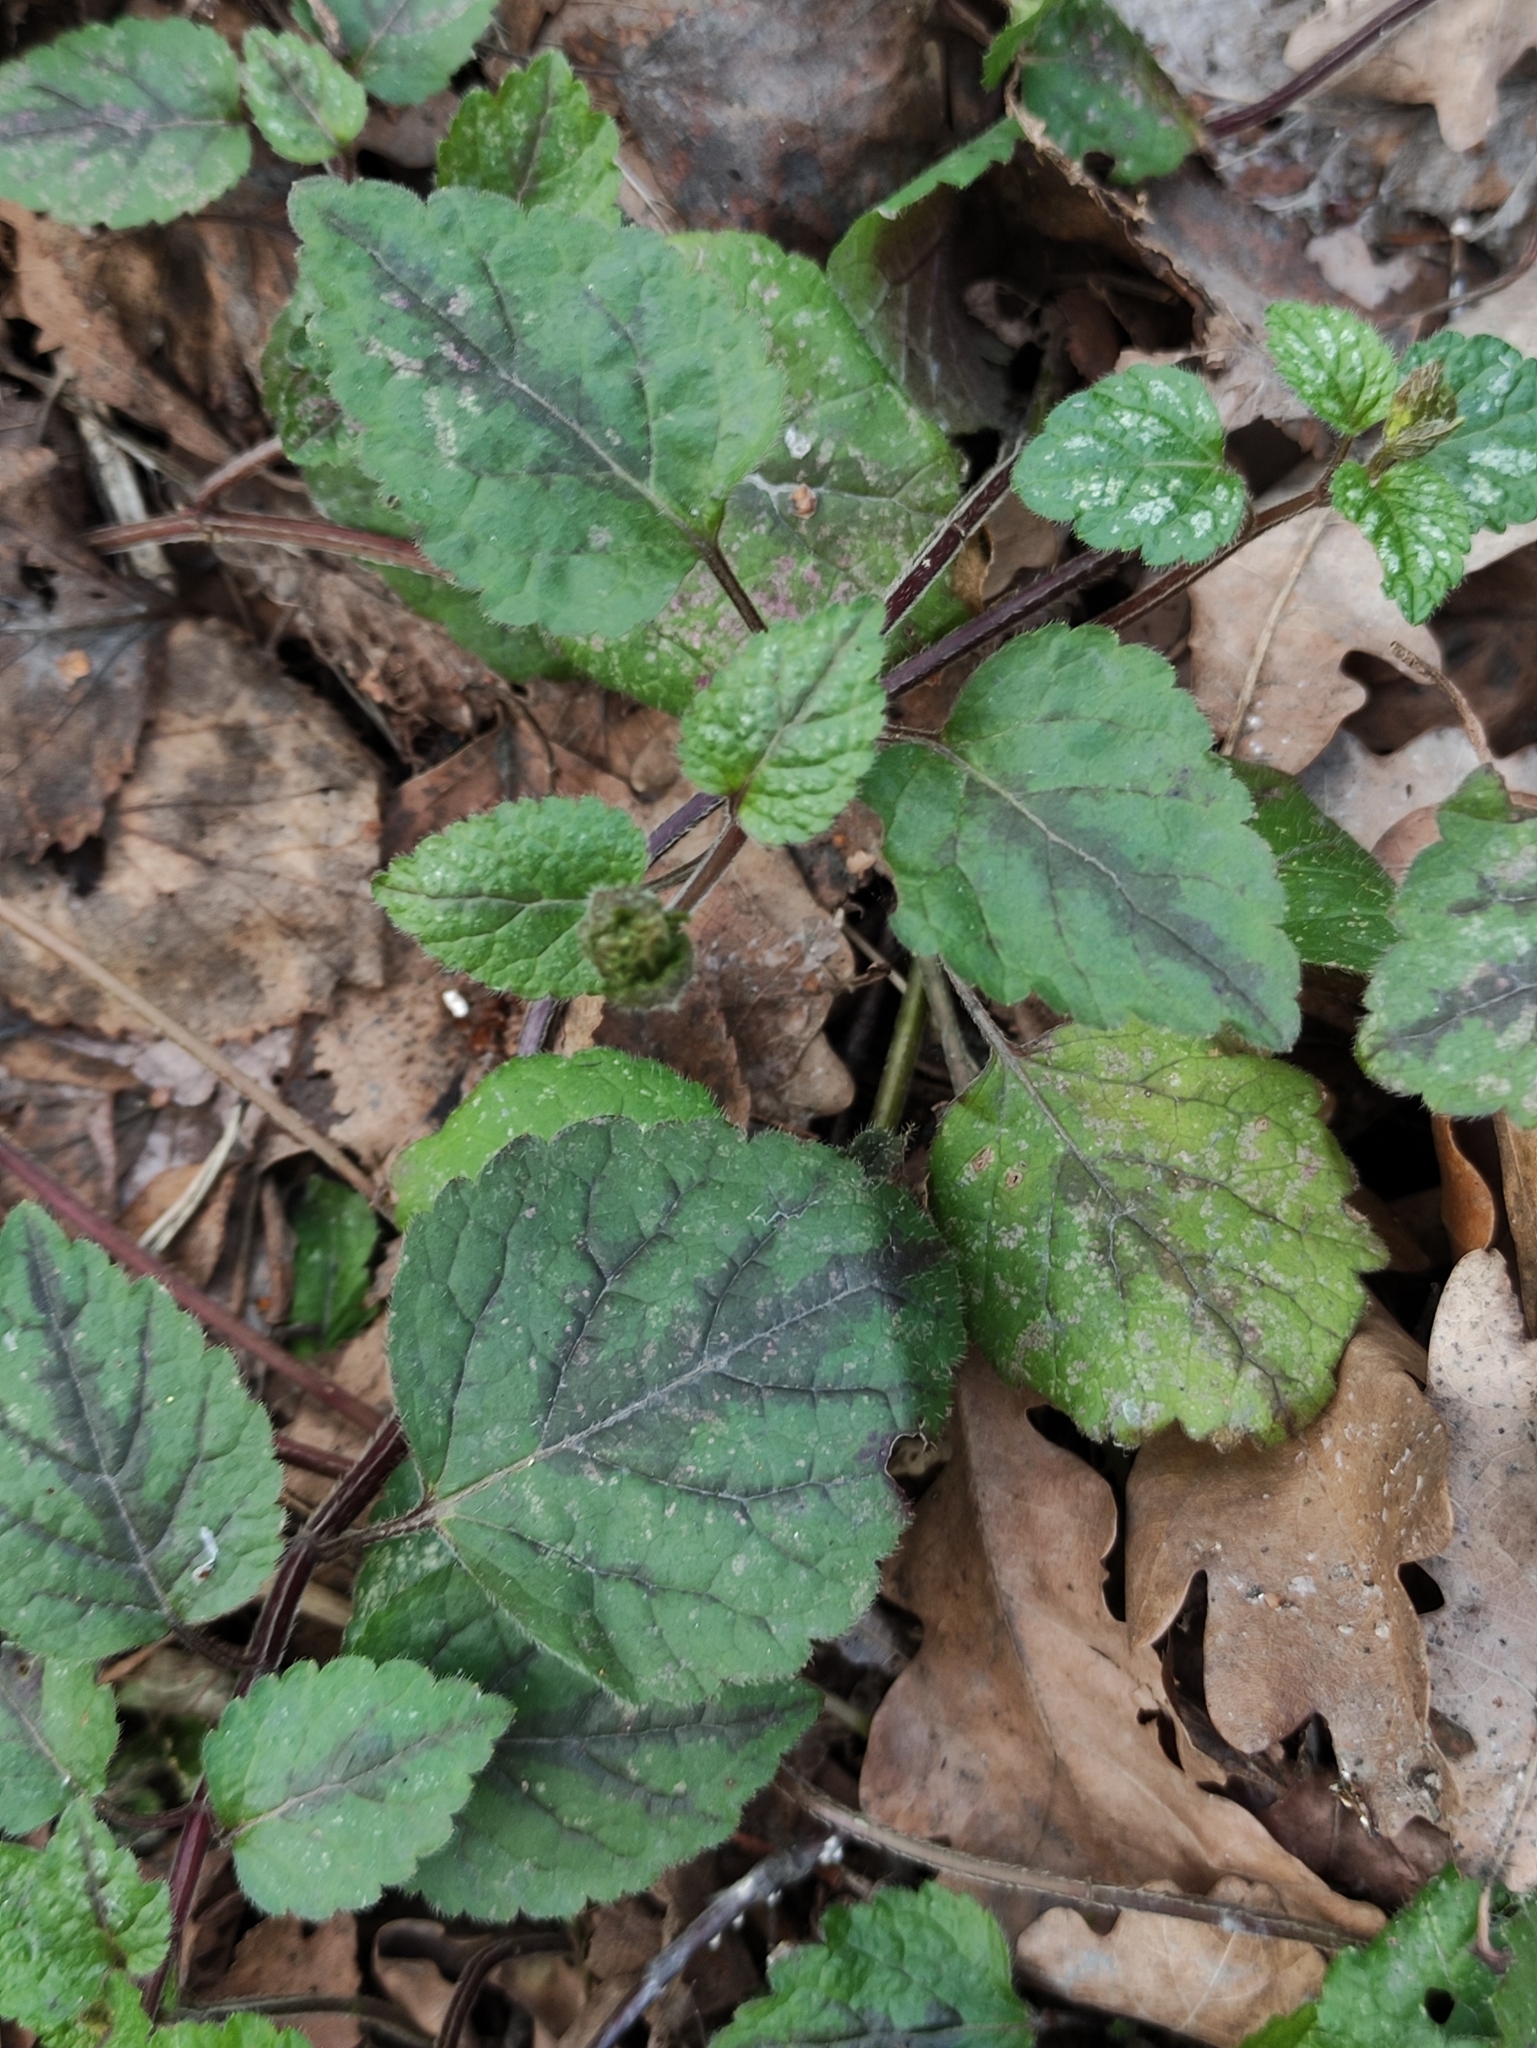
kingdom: Plantae
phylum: Tracheophyta
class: Magnoliopsida
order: Lamiales
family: Lamiaceae
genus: Lamium
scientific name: Lamium galeobdolon
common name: Yellow archangel
